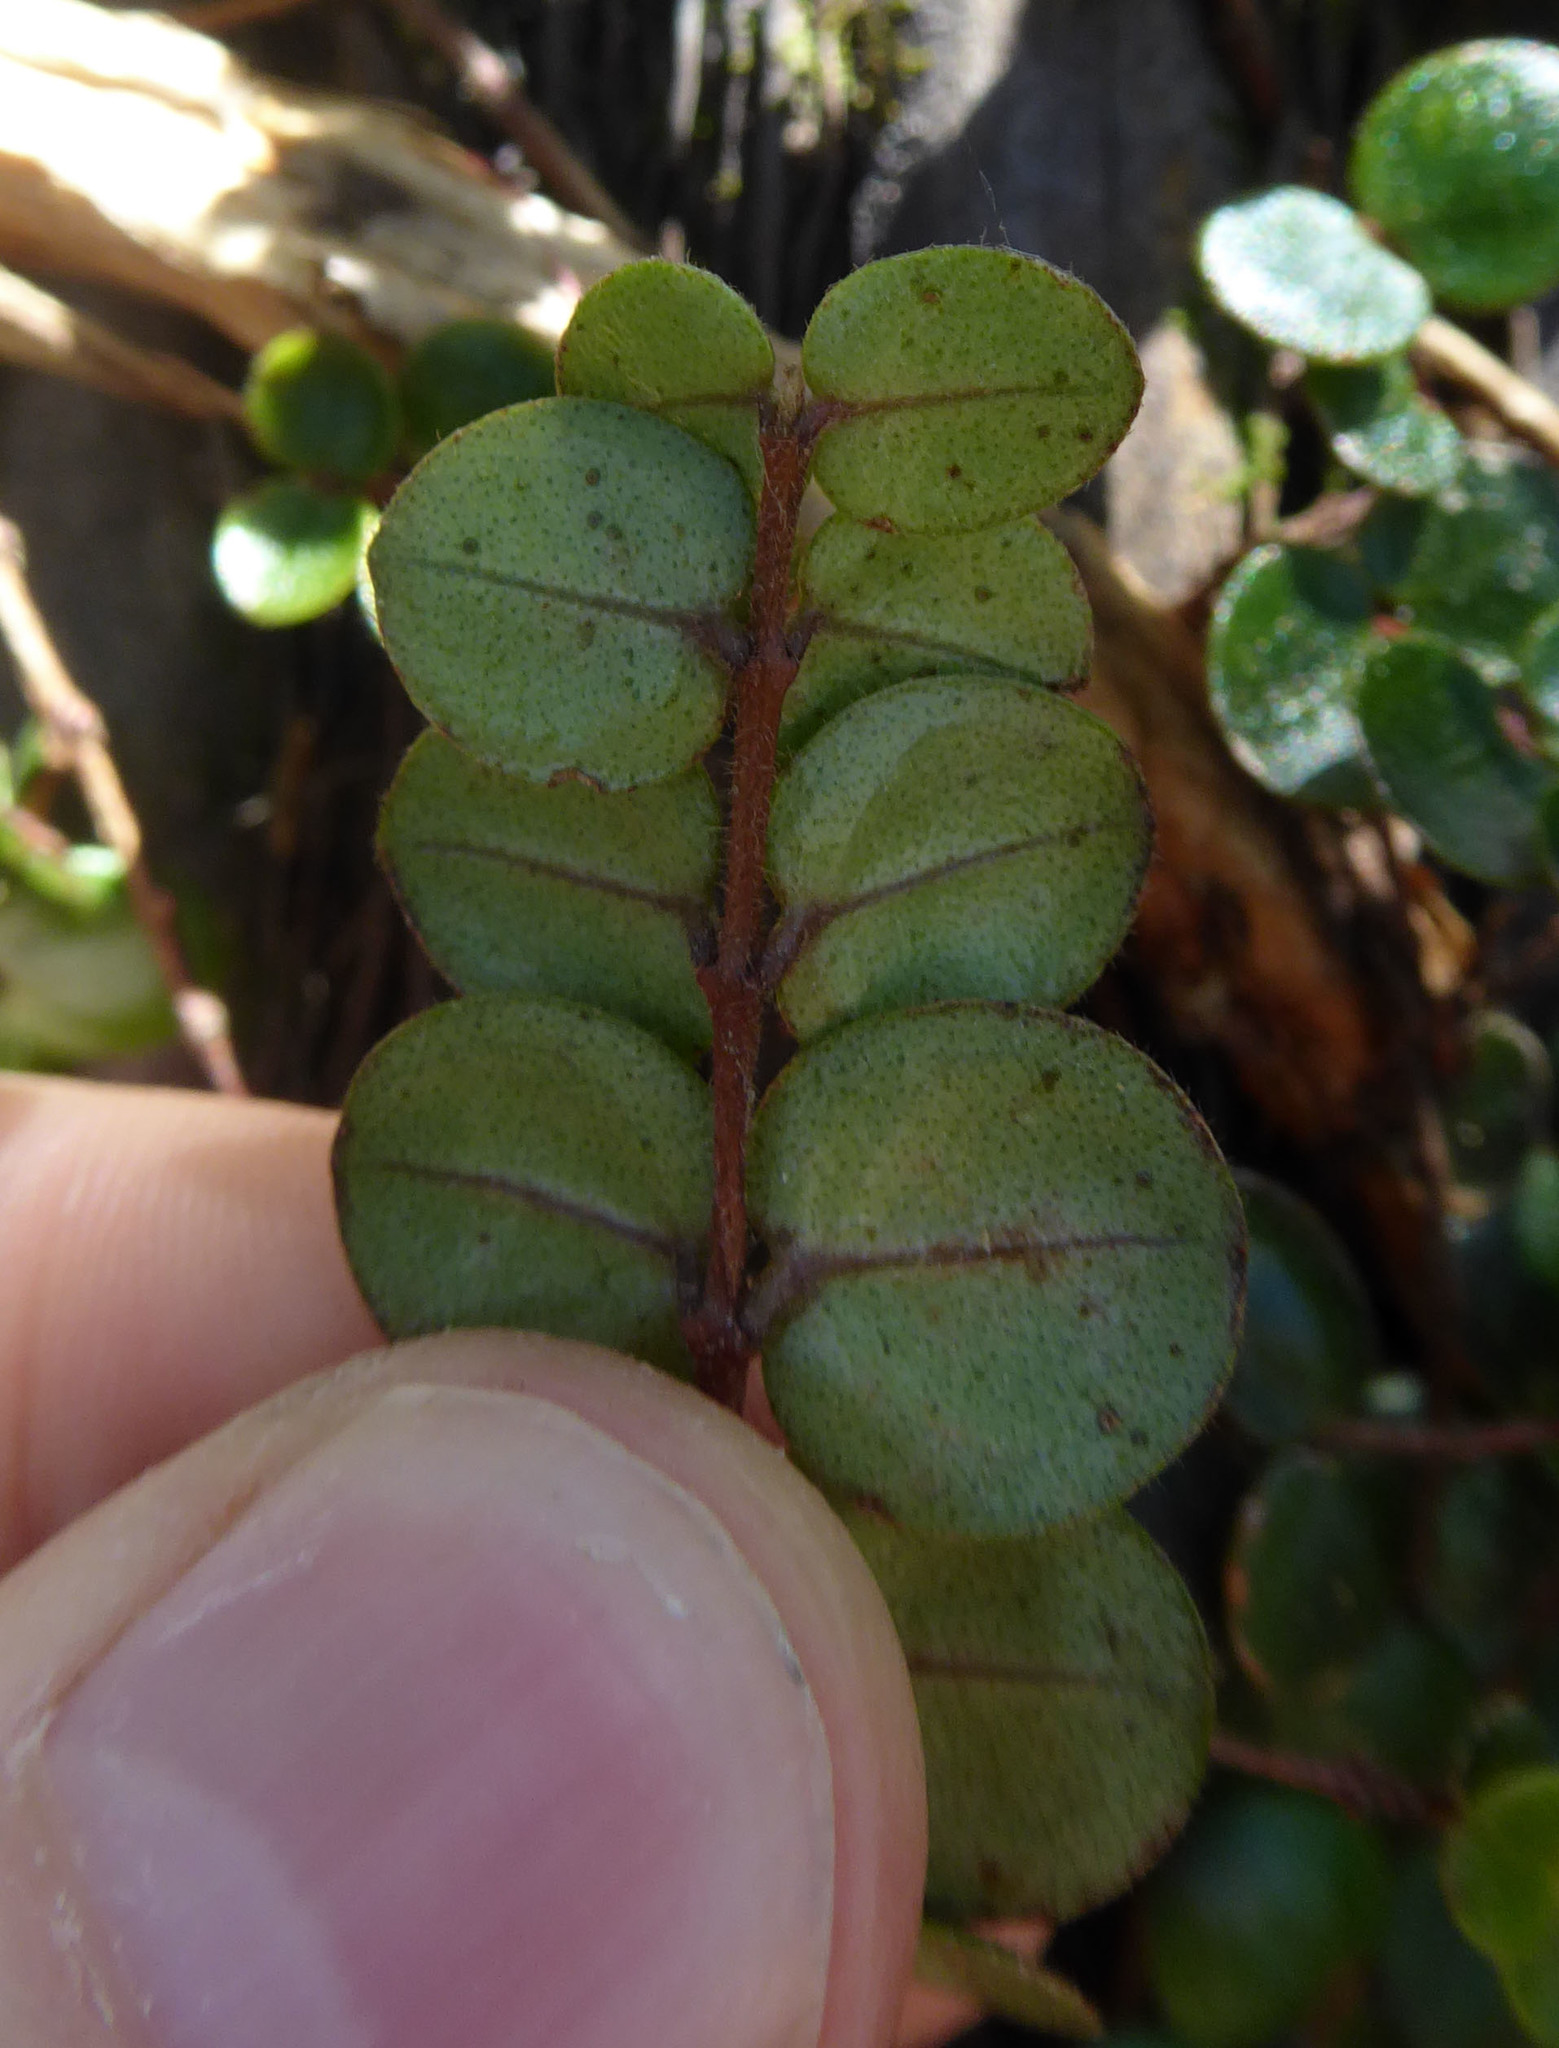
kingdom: Plantae
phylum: Tracheophyta
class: Magnoliopsida
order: Myrtales
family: Myrtaceae
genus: Metrosideros
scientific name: Metrosideros carminea
